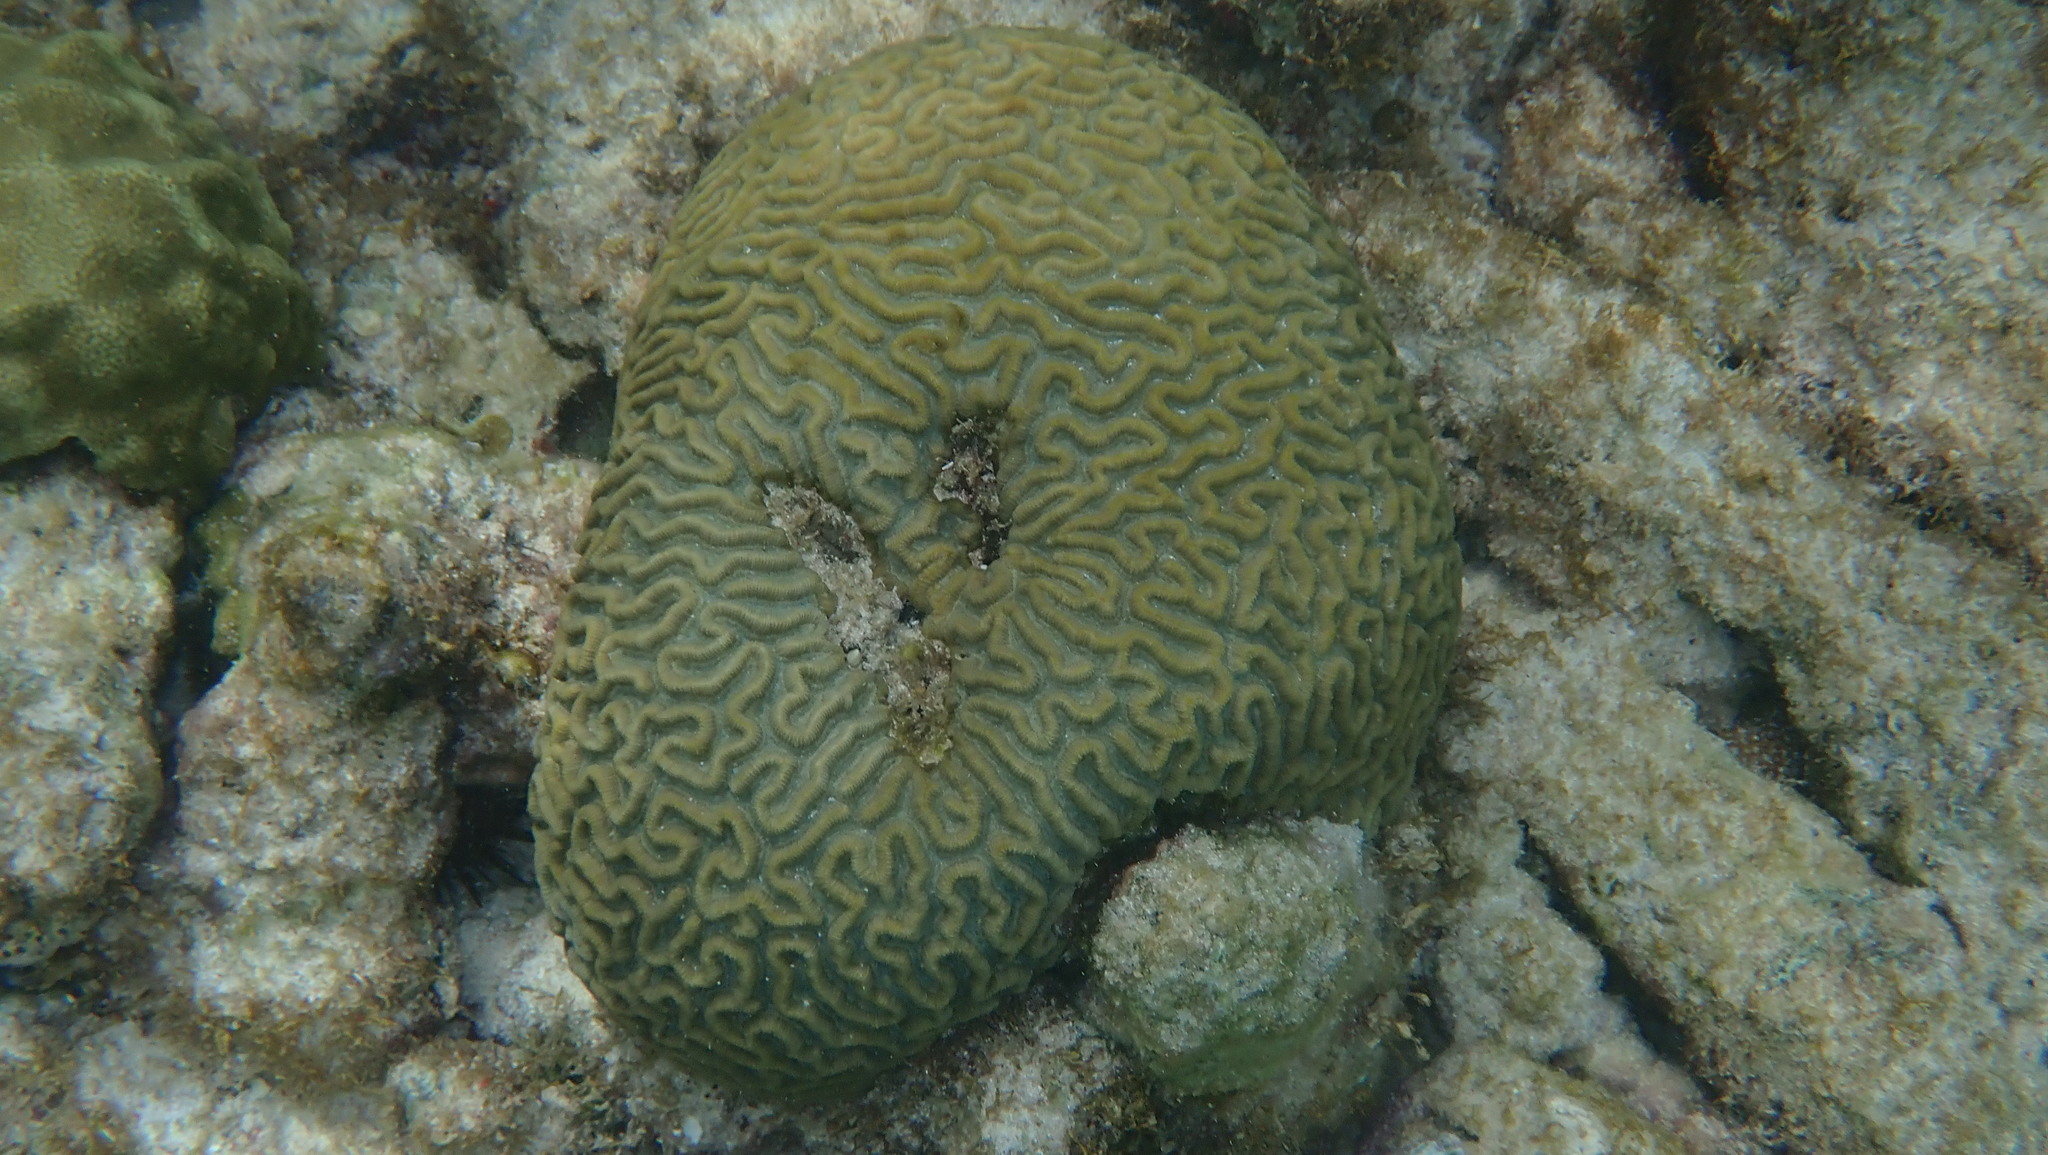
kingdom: Animalia
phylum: Cnidaria
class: Anthozoa
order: Scleractinia
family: Faviidae
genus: Colpophyllia
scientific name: Colpophyllia natans
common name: Boulder brain coral
